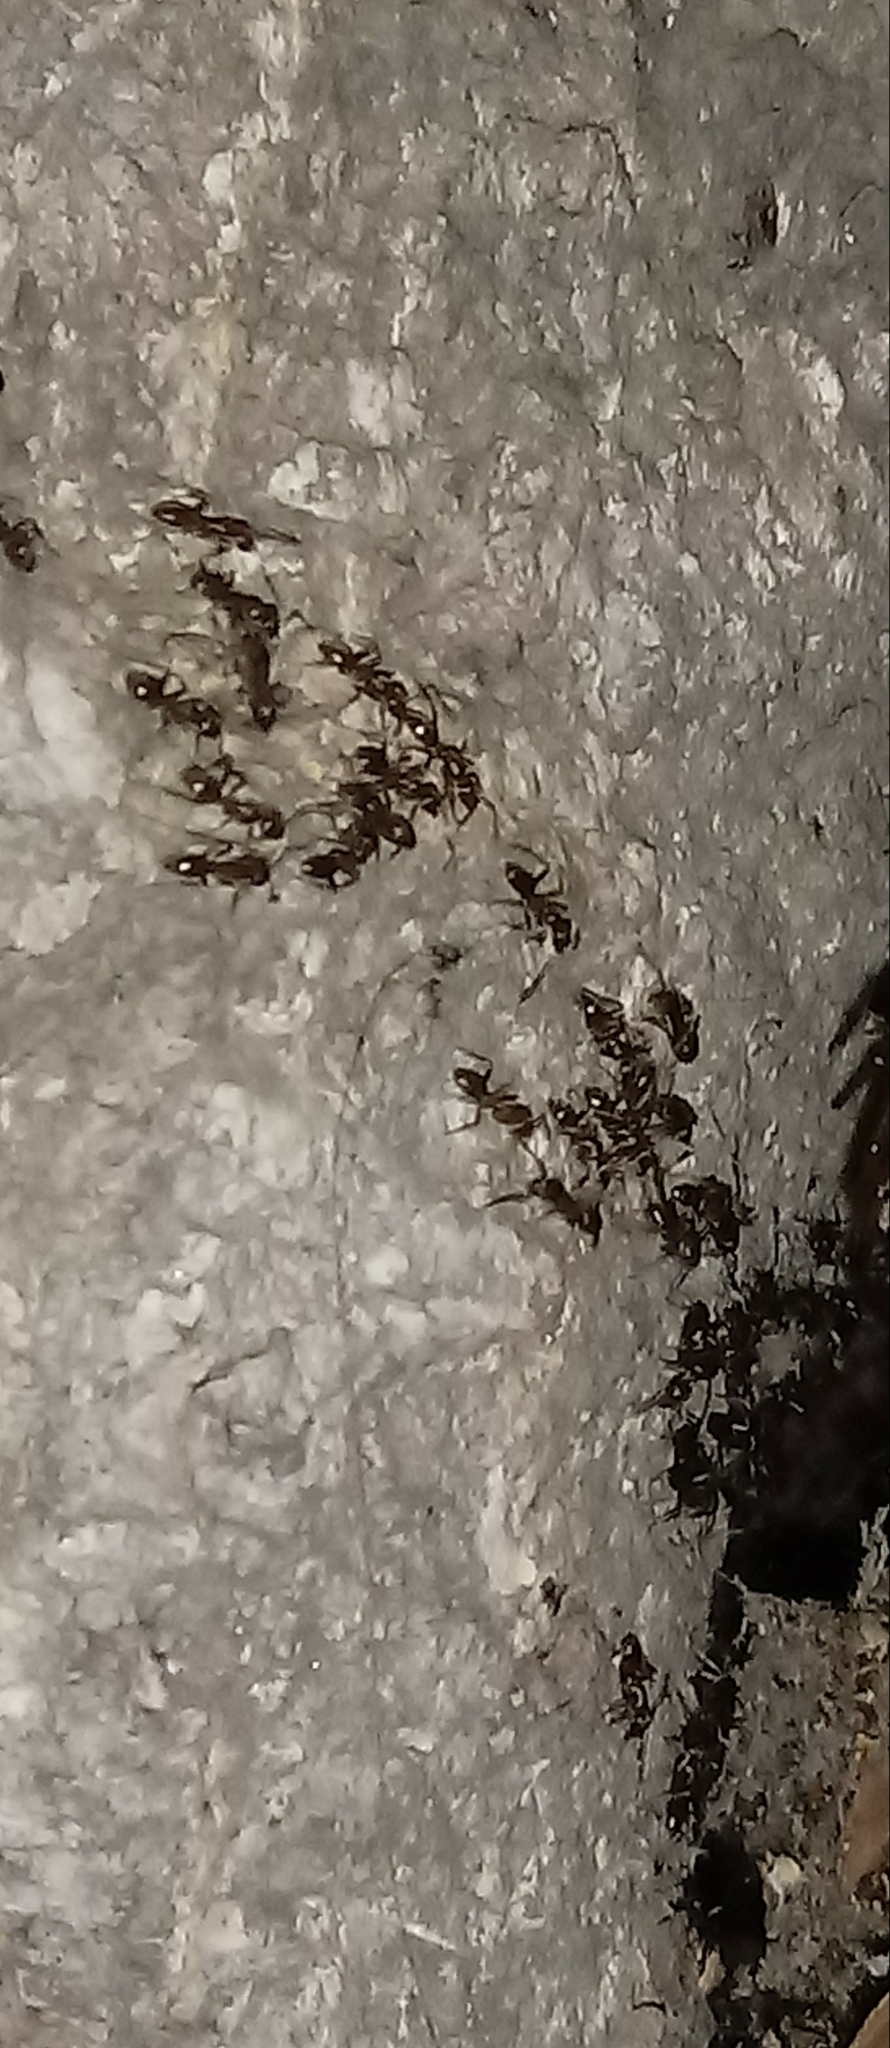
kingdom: Animalia
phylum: Arthropoda
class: Insecta
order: Hymenoptera
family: Formicidae
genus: Linepithema
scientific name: Linepithema humile
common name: Argentine ant
